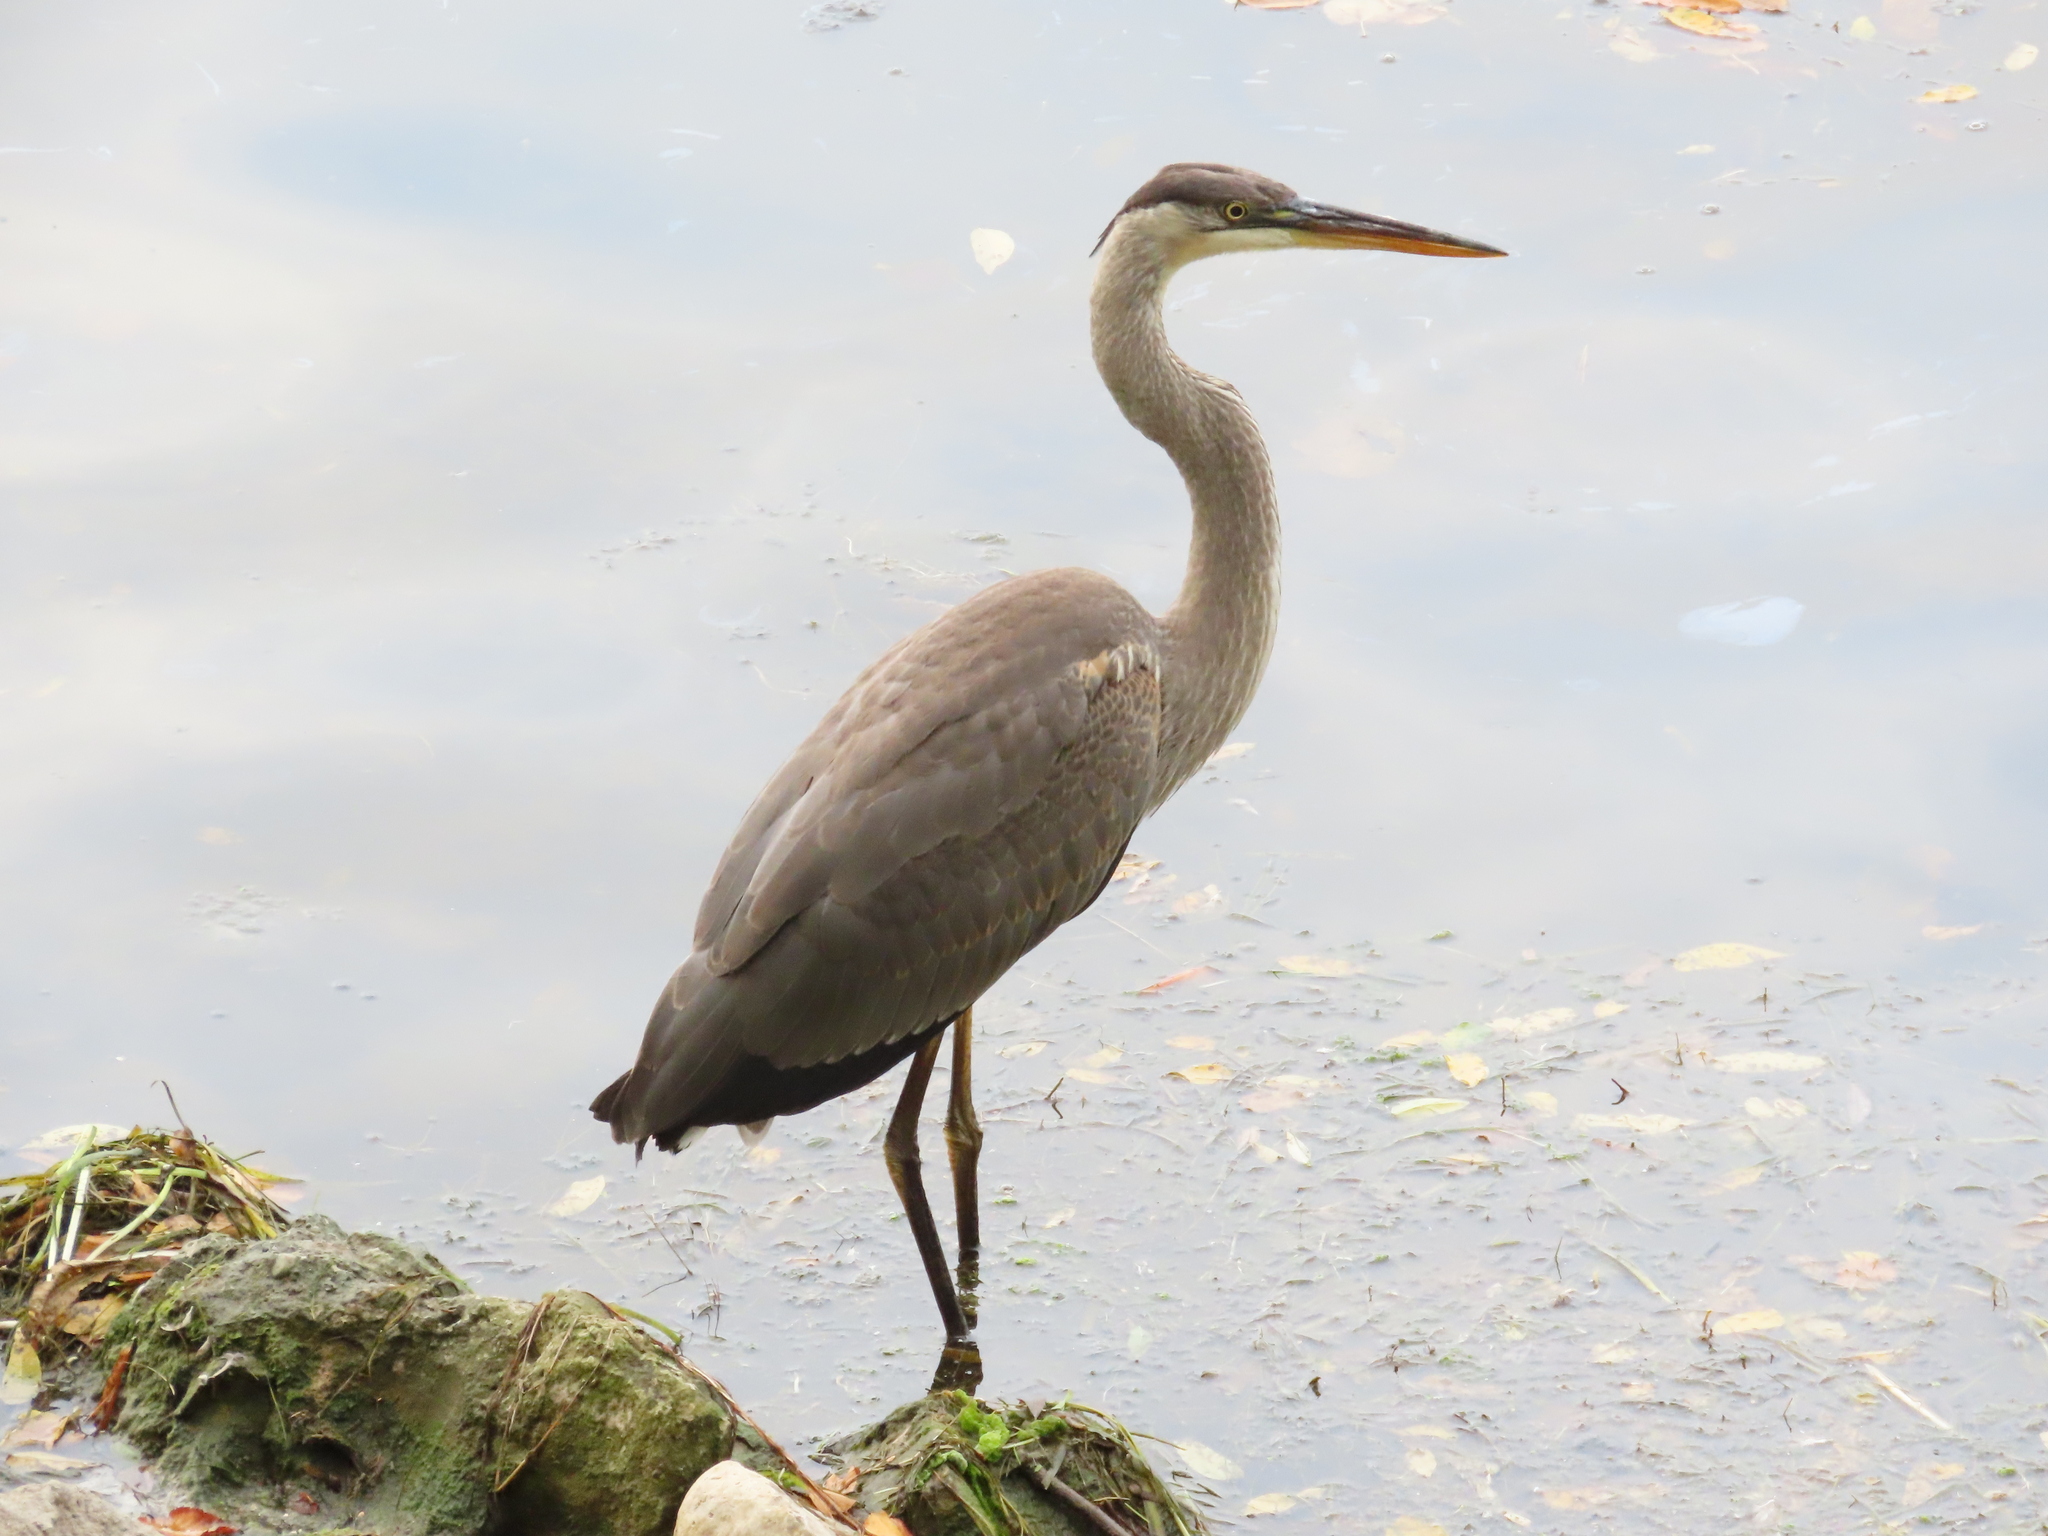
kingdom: Animalia
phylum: Chordata
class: Aves
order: Pelecaniformes
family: Ardeidae
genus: Ardea
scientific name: Ardea herodias
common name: Great blue heron
